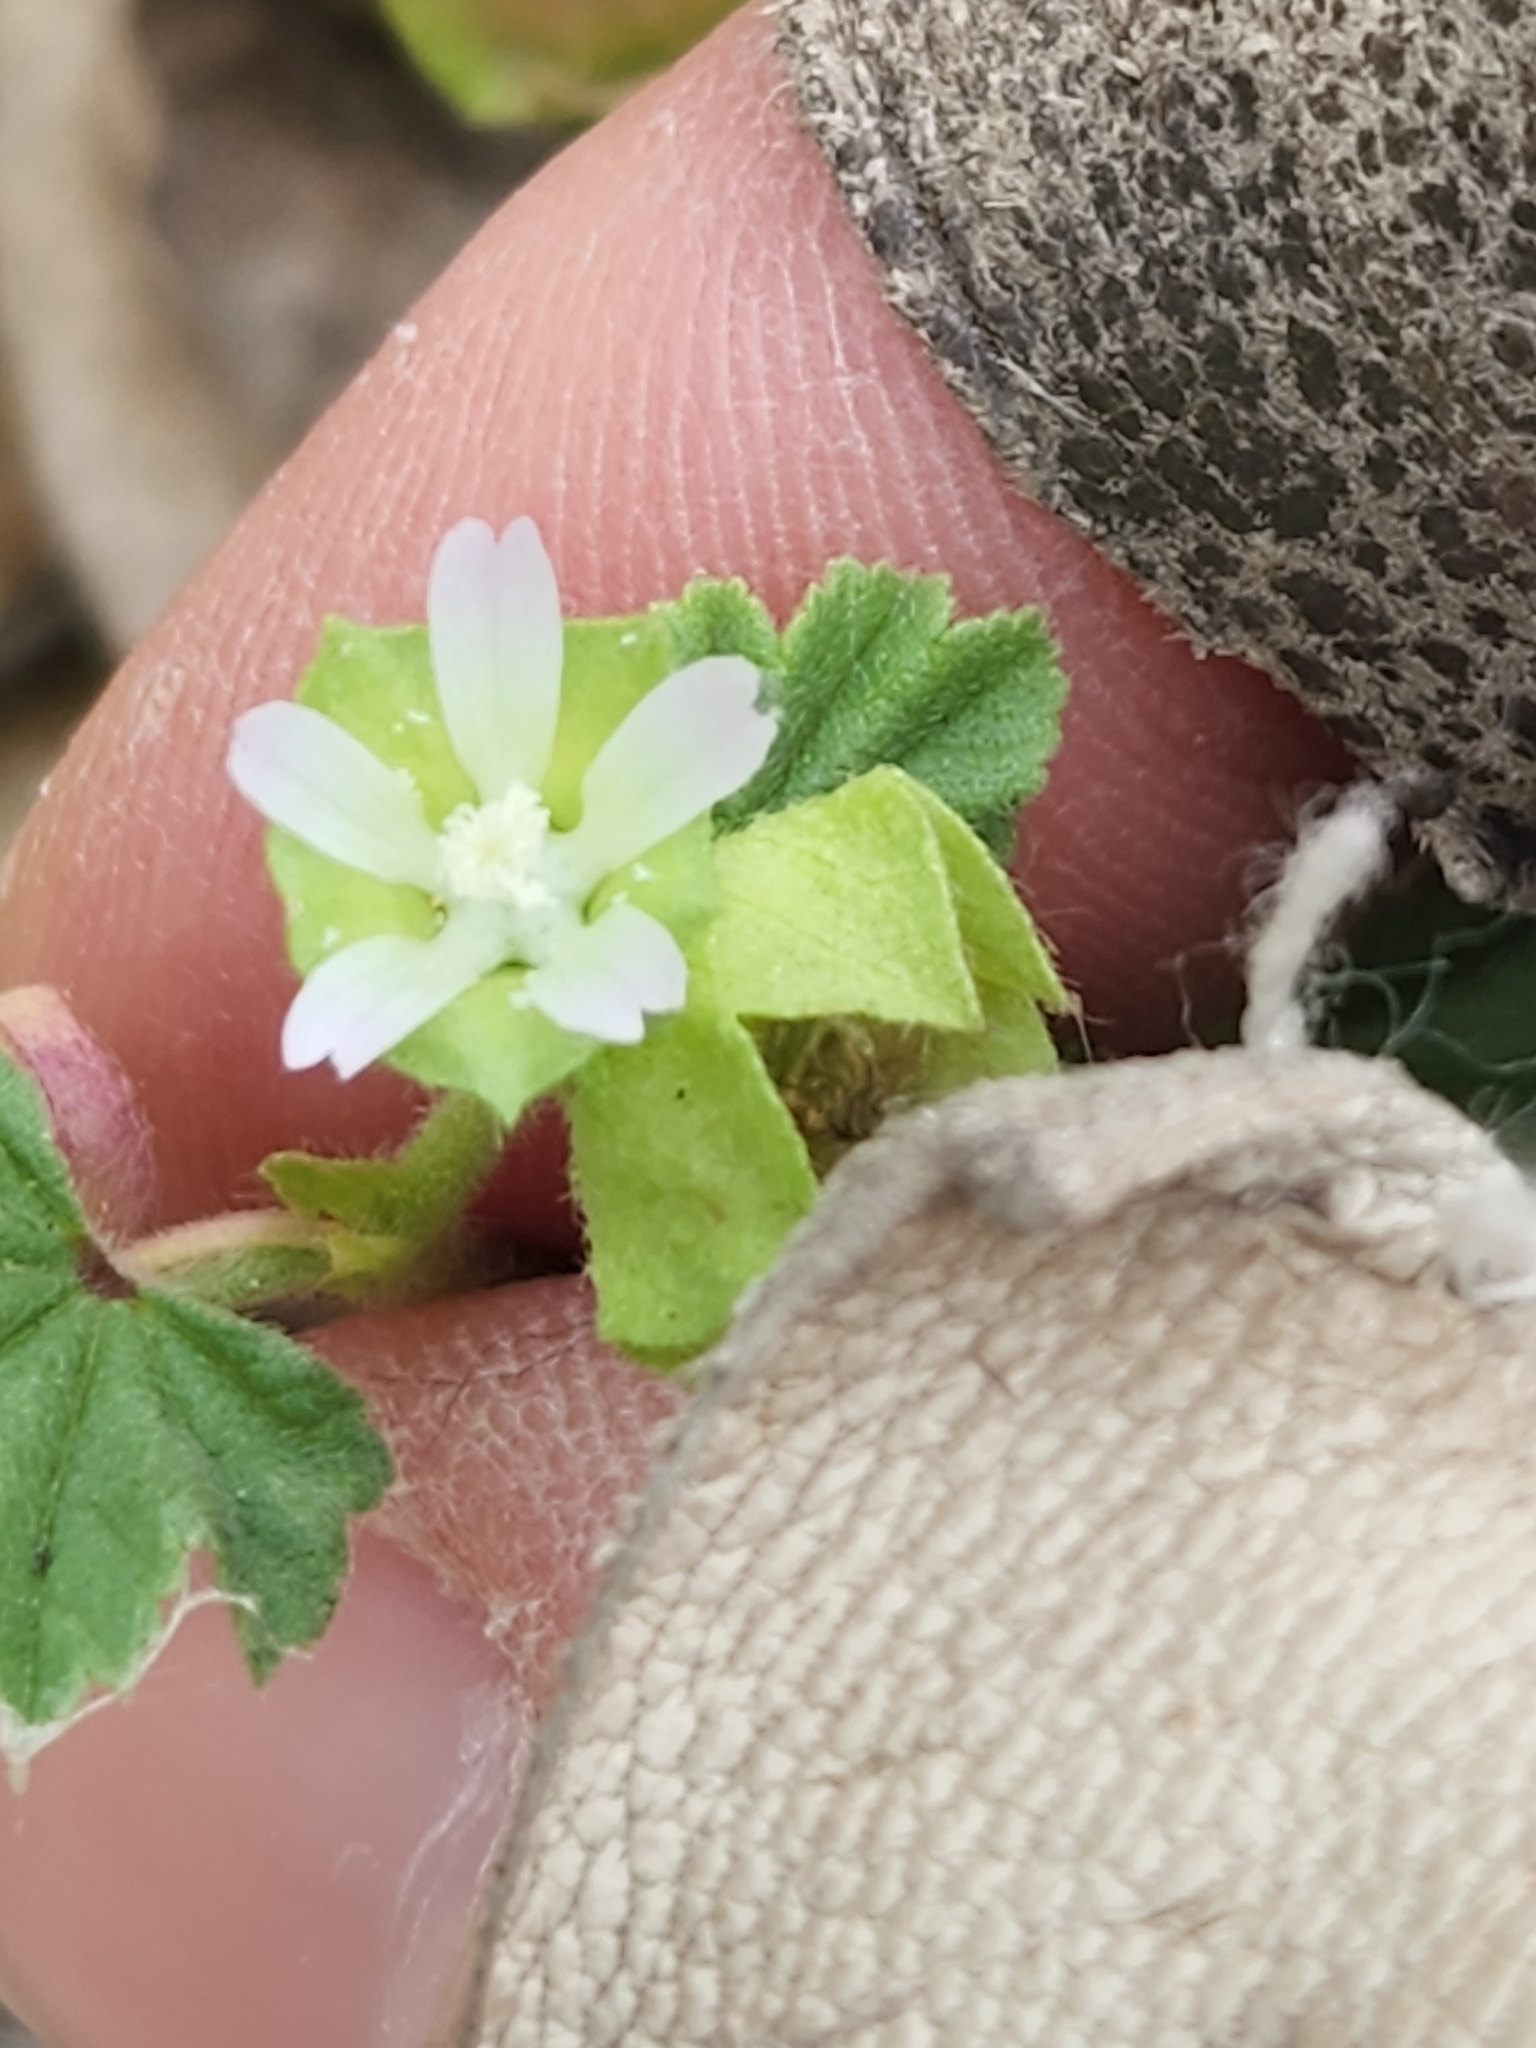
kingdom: Plantae
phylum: Tracheophyta
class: Magnoliopsida
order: Malvales
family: Malvaceae
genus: Malva
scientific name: Malva parviflora
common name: Least mallow
